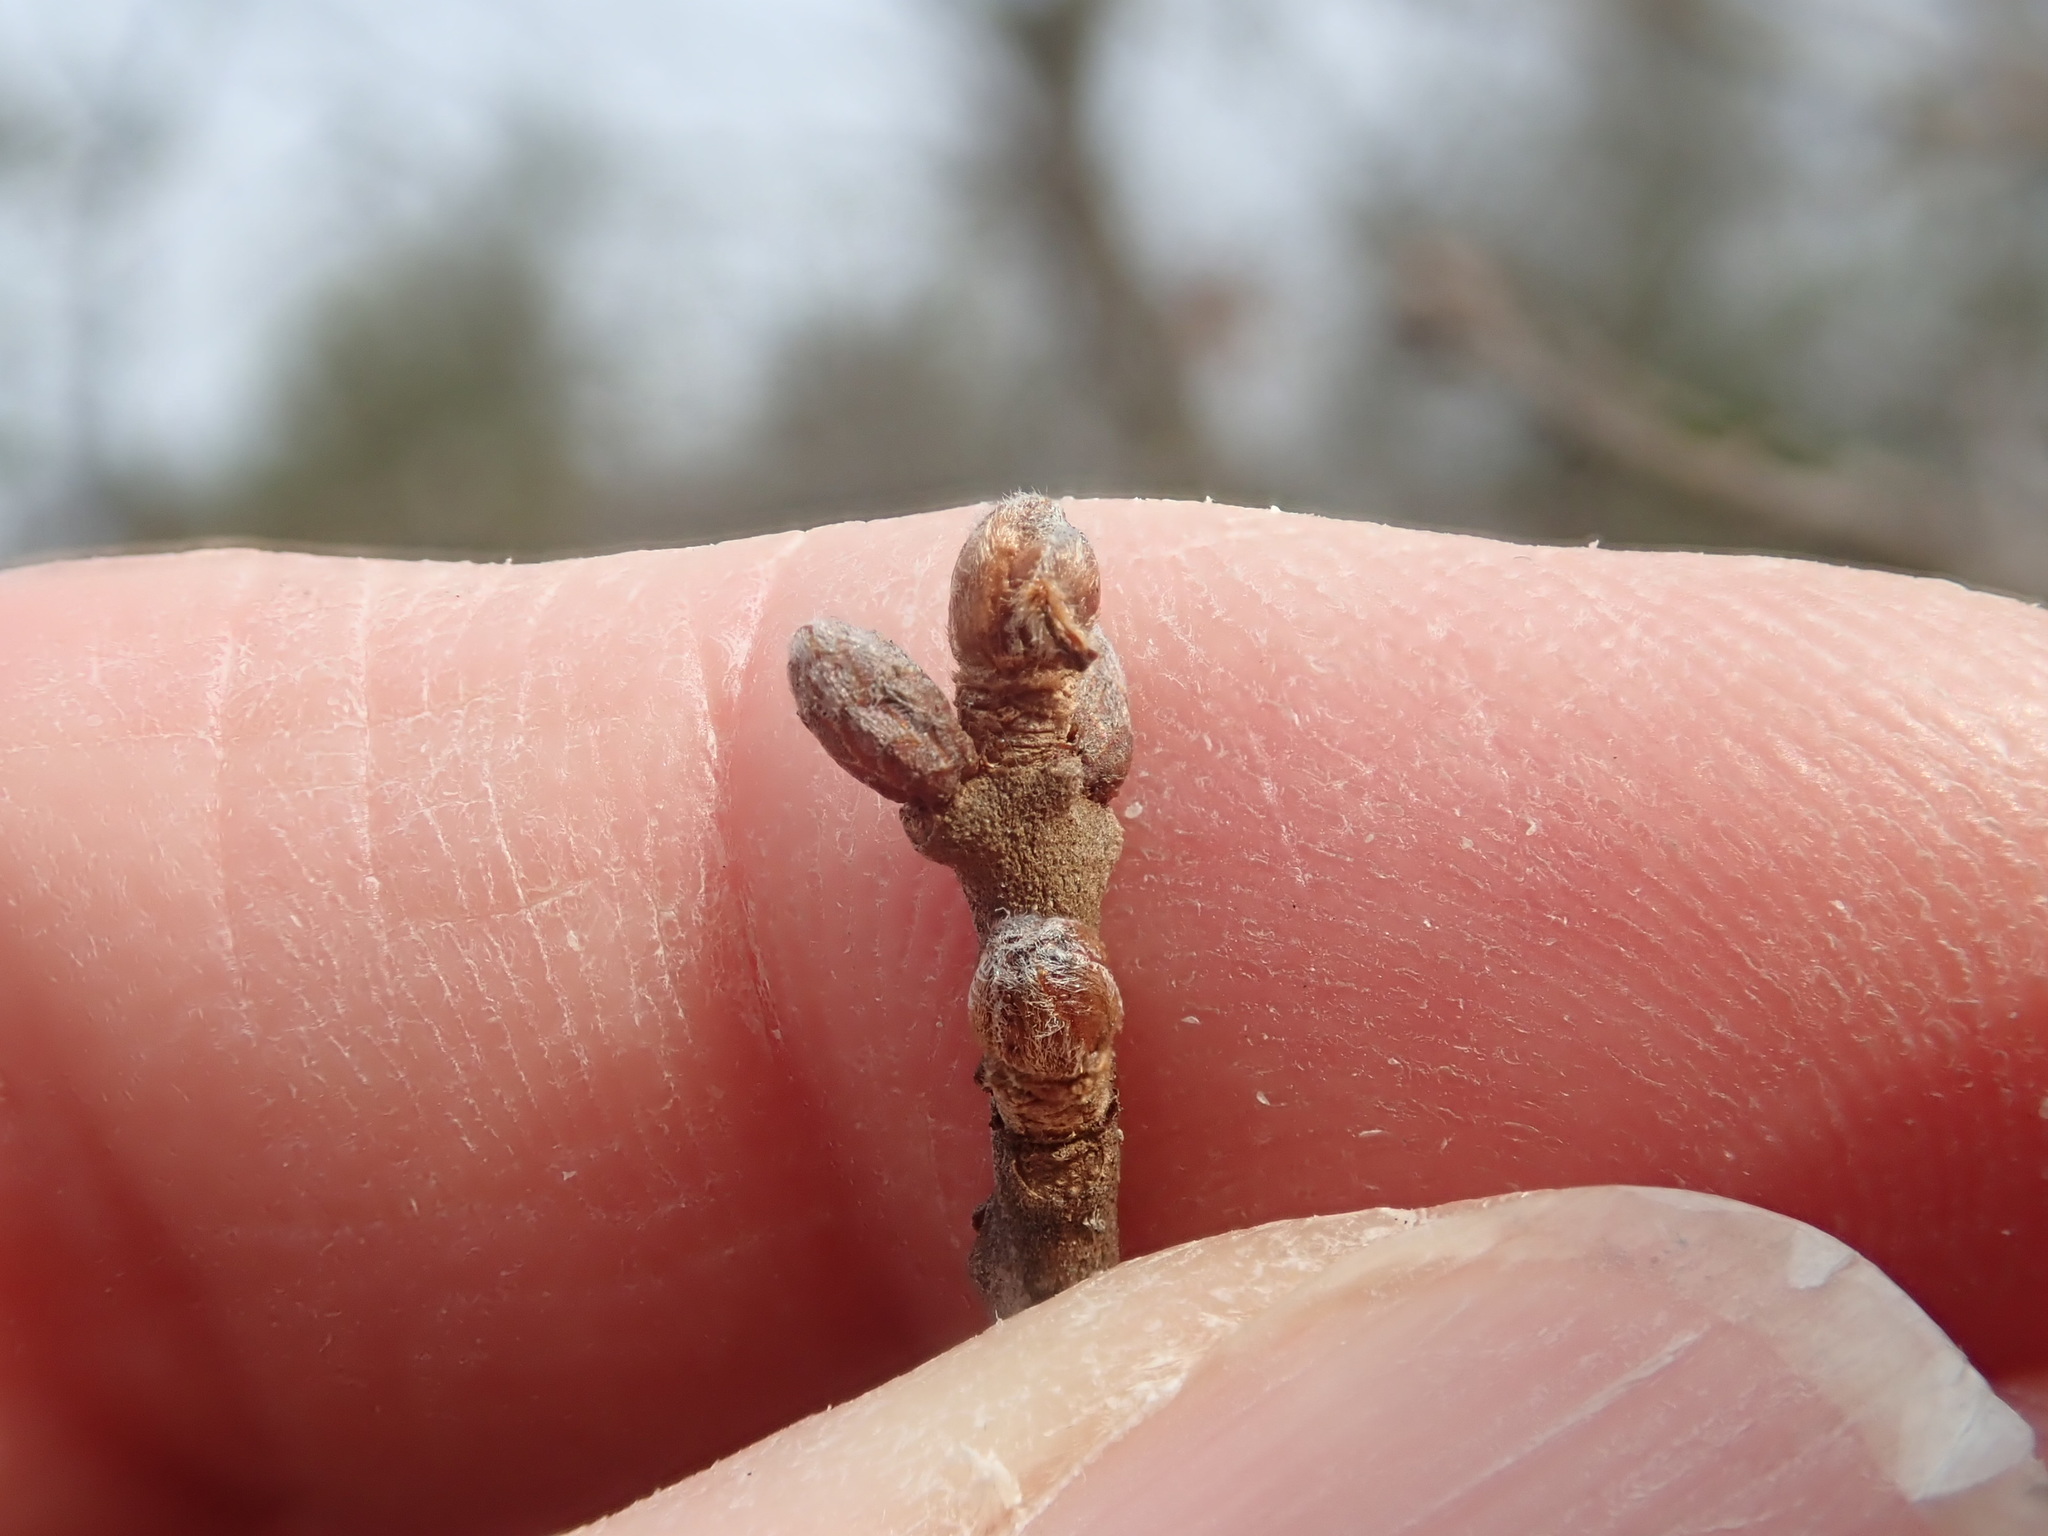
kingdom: Plantae
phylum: Tracheophyta
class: Magnoliopsida
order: Fagales
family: Fagaceae
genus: Quercus
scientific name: Quercus ilicifolia
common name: Bear oak
